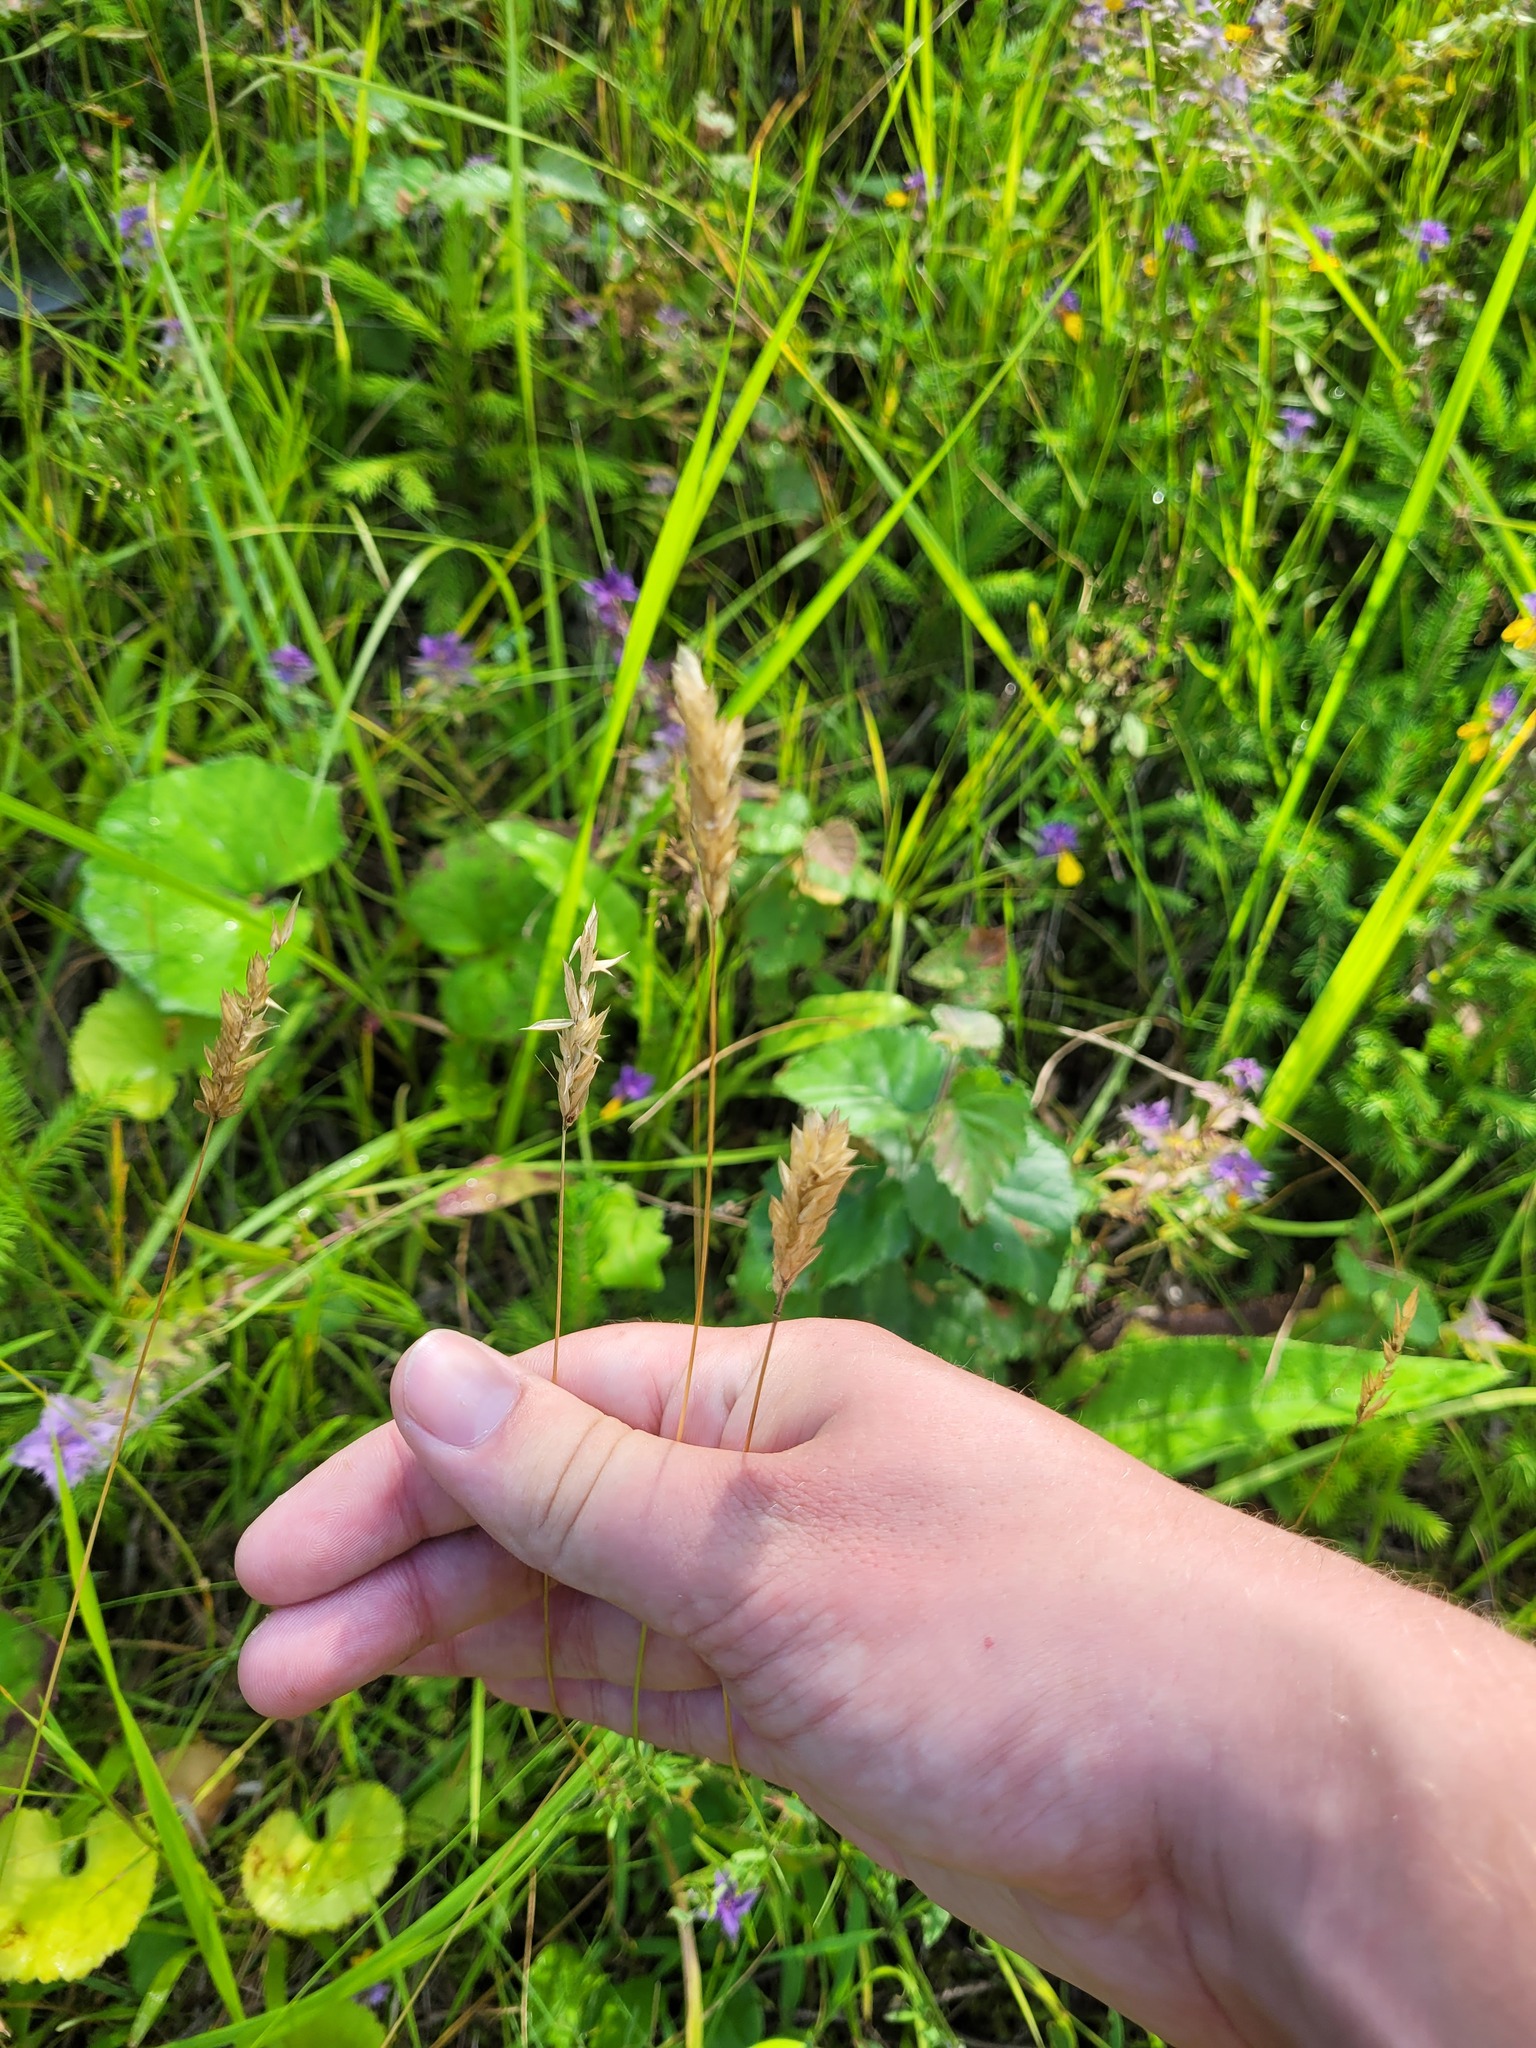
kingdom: Plantae
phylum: Tracheophyta
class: Liliopsida
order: Poales
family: Poaceae
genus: Anthoxanthum
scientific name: Anthoxanthum odoratum
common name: Sweet vernalgrass
